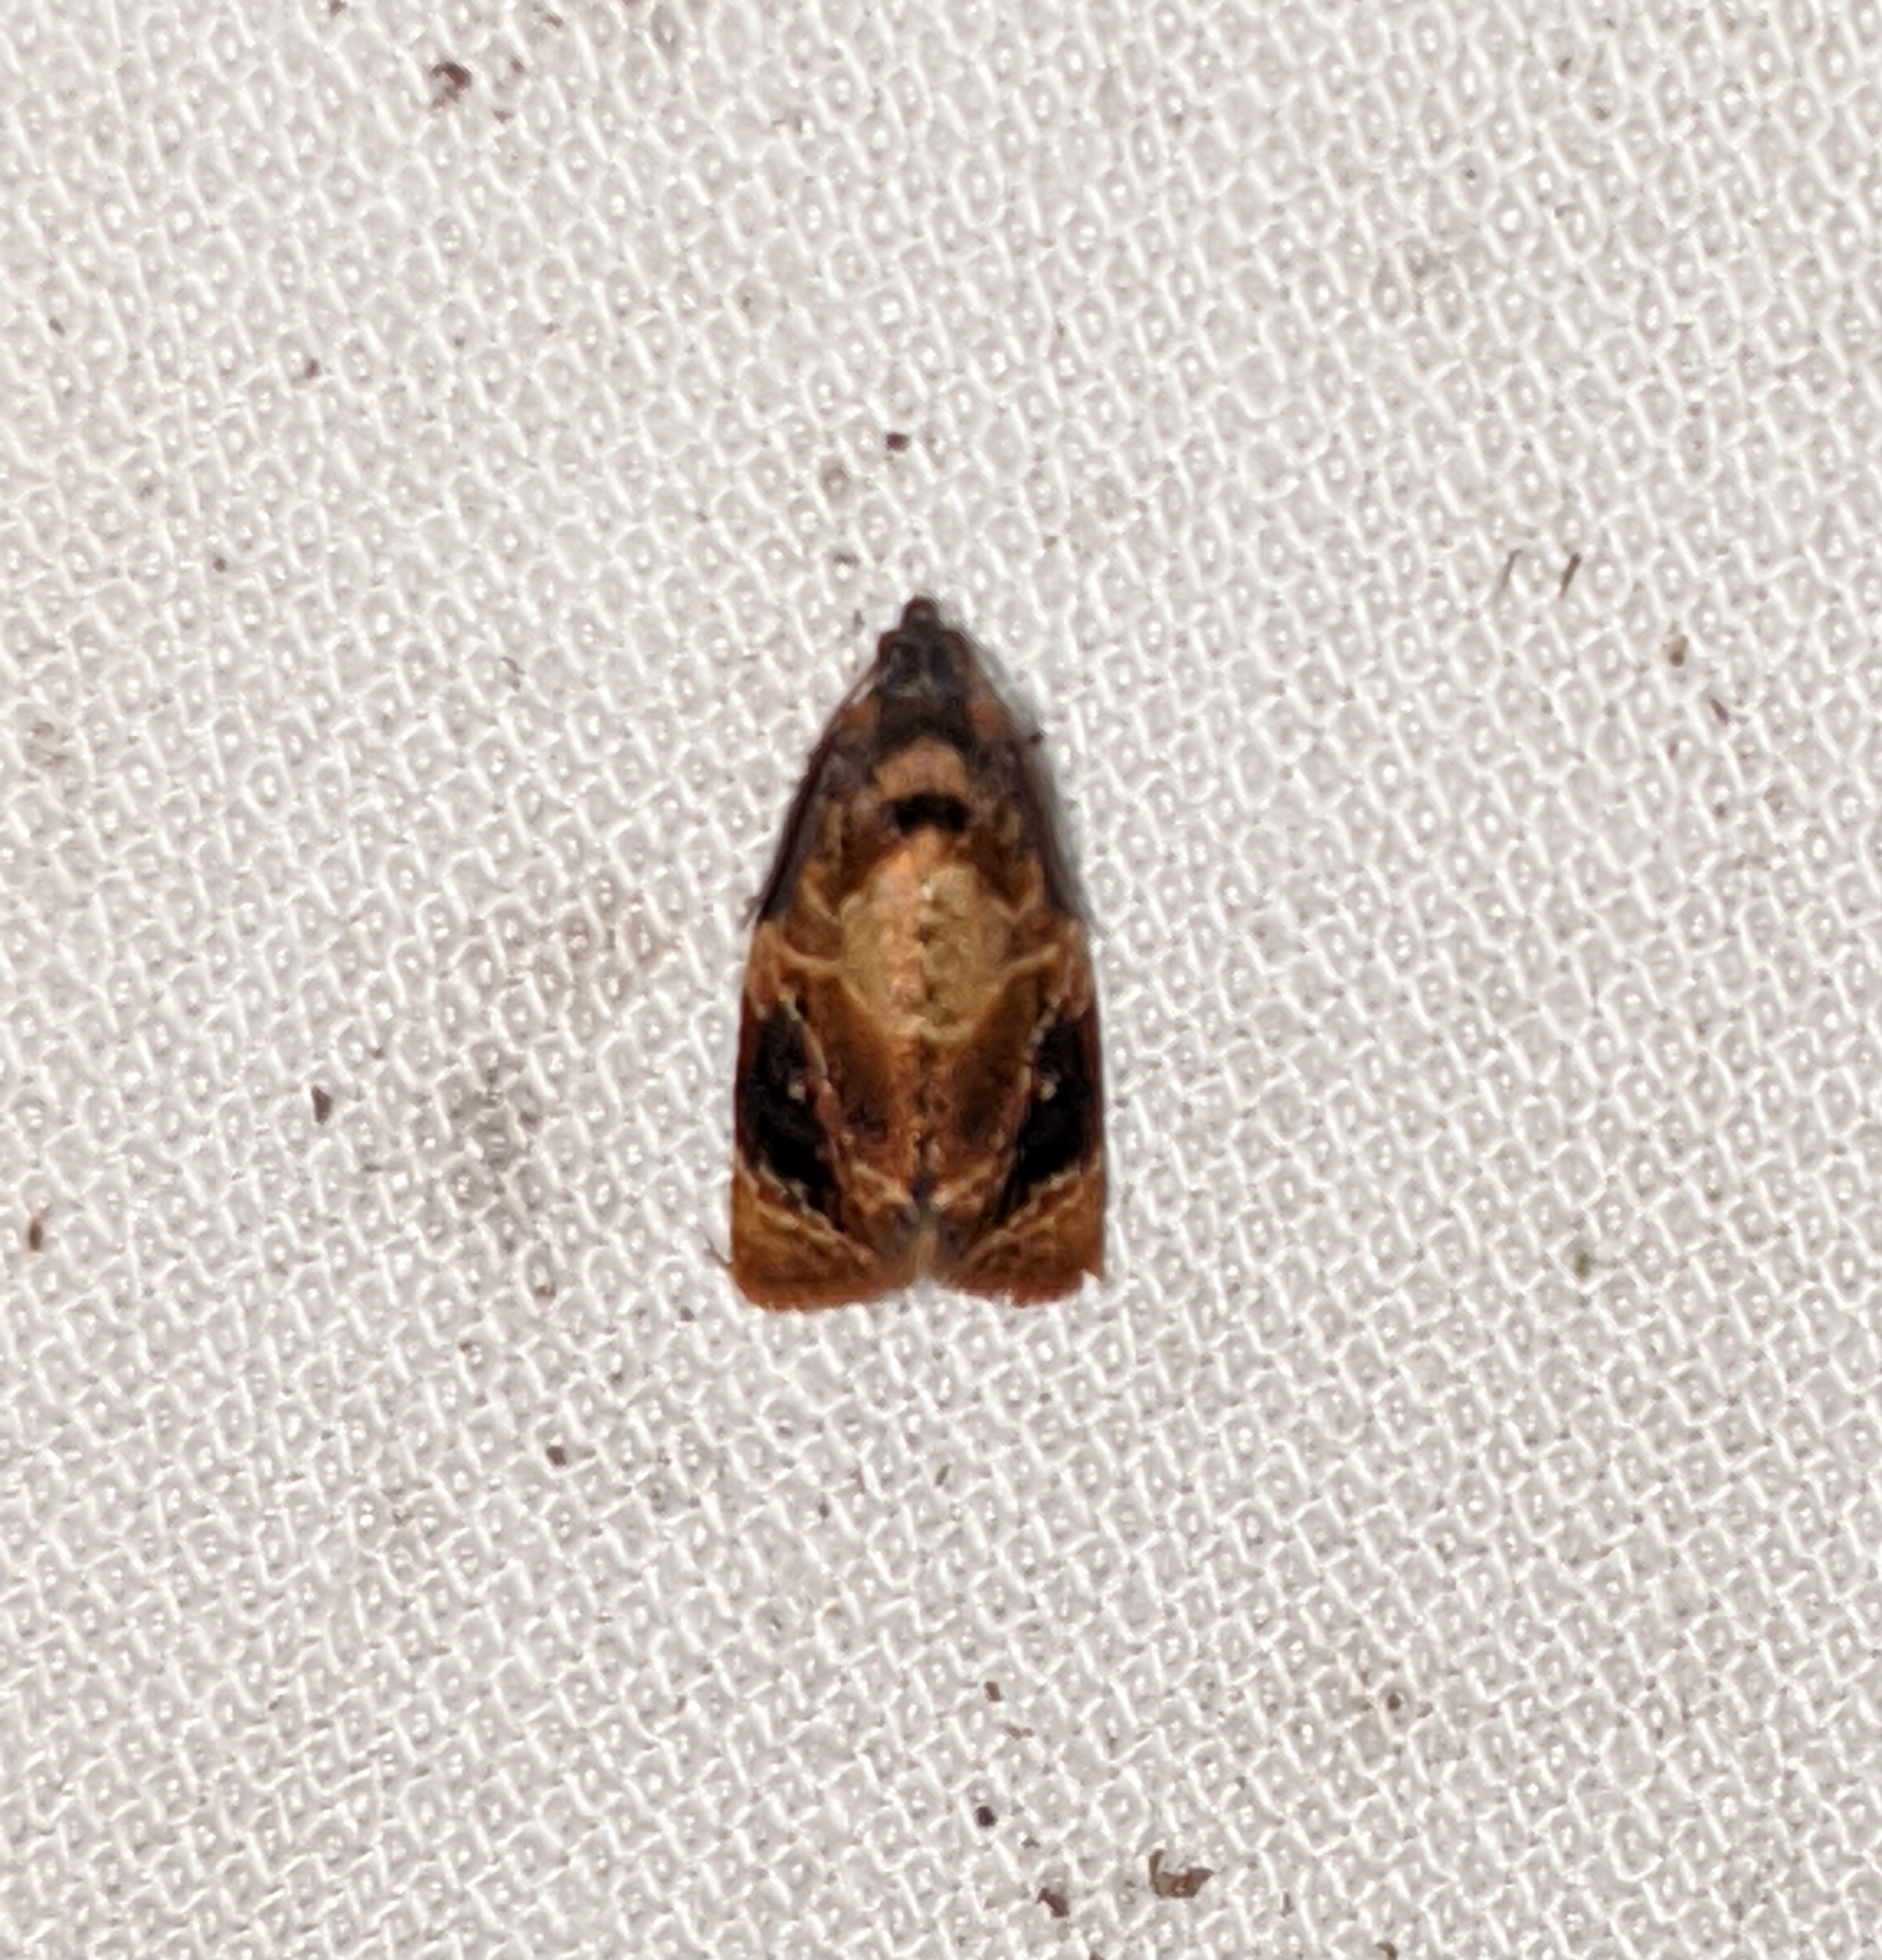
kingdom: Animalia
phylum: Arthropoda
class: Insecta
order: Lepidoptera
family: Tortricidae
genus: Ditula
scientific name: Ditula angustiorana
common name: Red-barred tortrix
